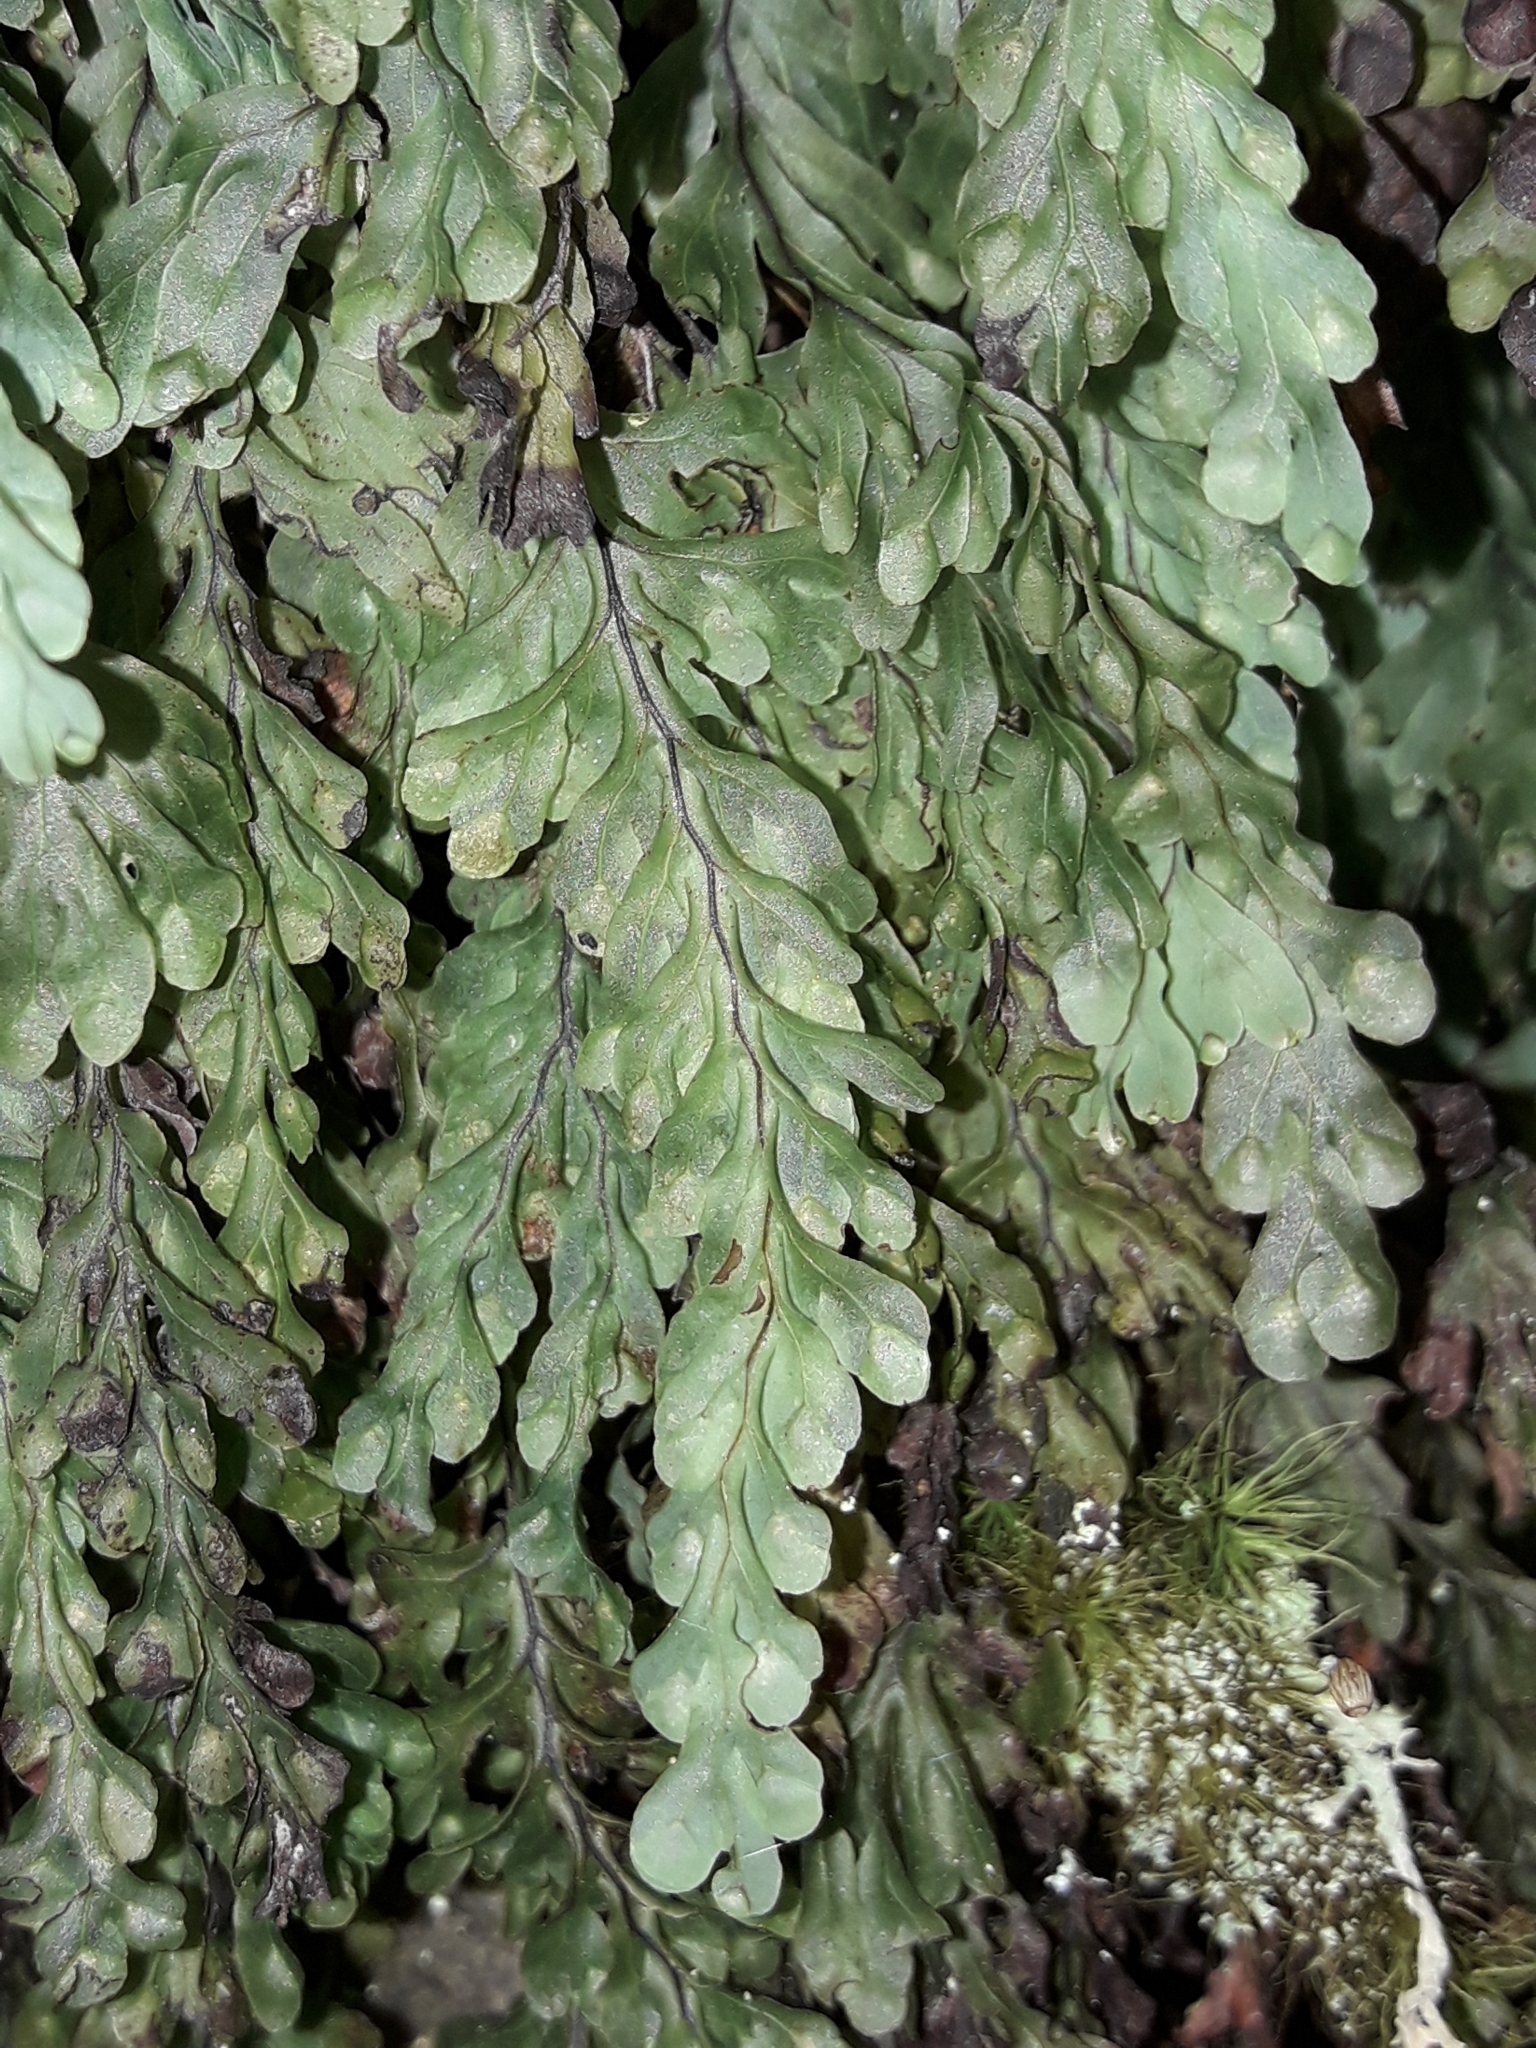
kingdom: Plantae
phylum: Tracheophyta
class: Polypodiopsida
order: Hymenophyllales
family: Hymenophyllaceae
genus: Hymenophyllum
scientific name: Hymenophyllum rarum
